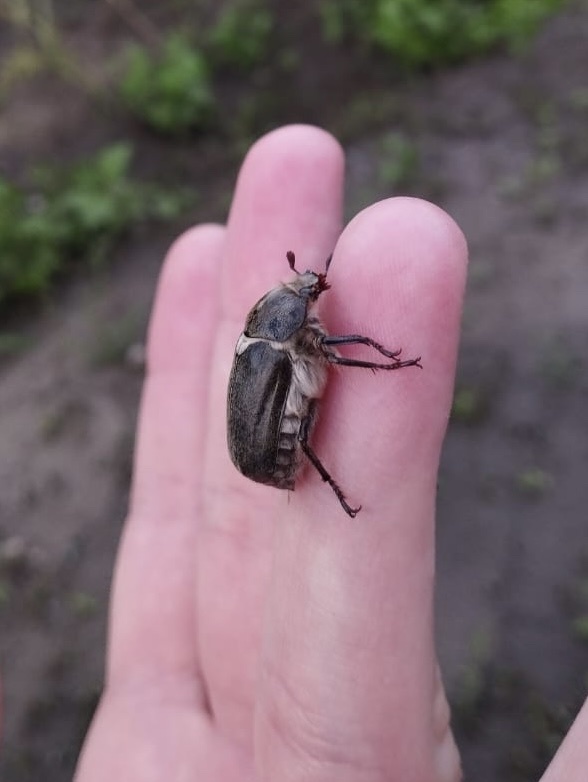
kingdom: Animalia
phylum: Arthropoda
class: Insecta
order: Coleoptera
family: Scarabaeidae
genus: Anoxia
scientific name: Anoxia villosa
